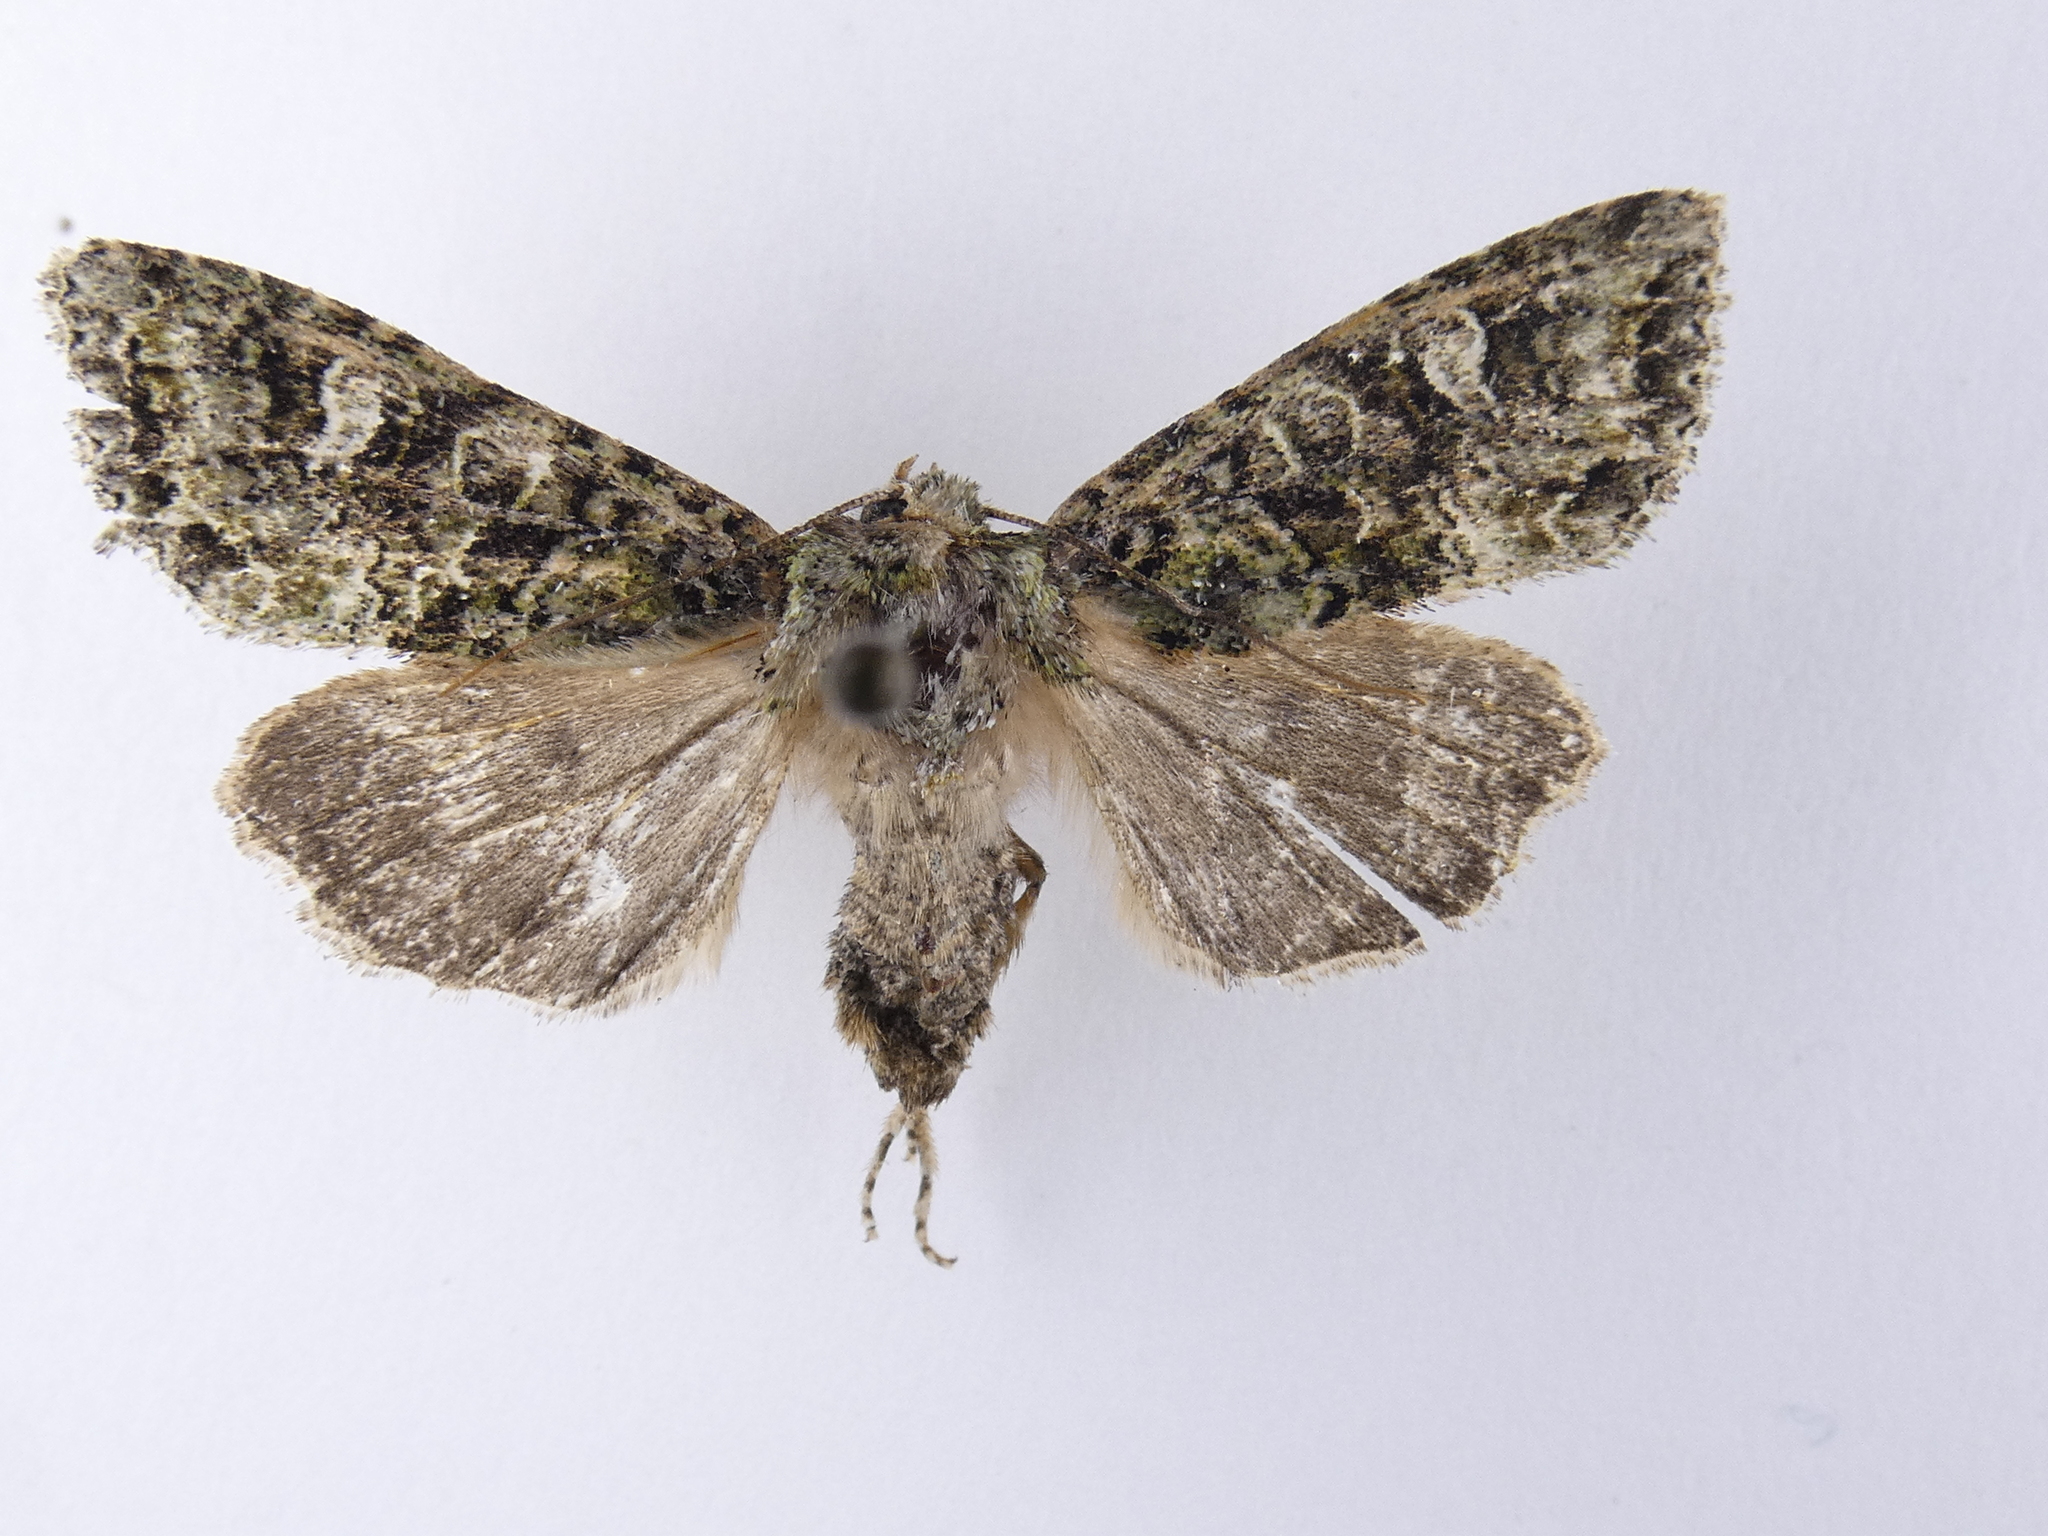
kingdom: Animalia
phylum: Arthropoda
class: Insecta
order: Lepidoptera
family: Noctuidae
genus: Ichneutica
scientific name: Ichneutica
